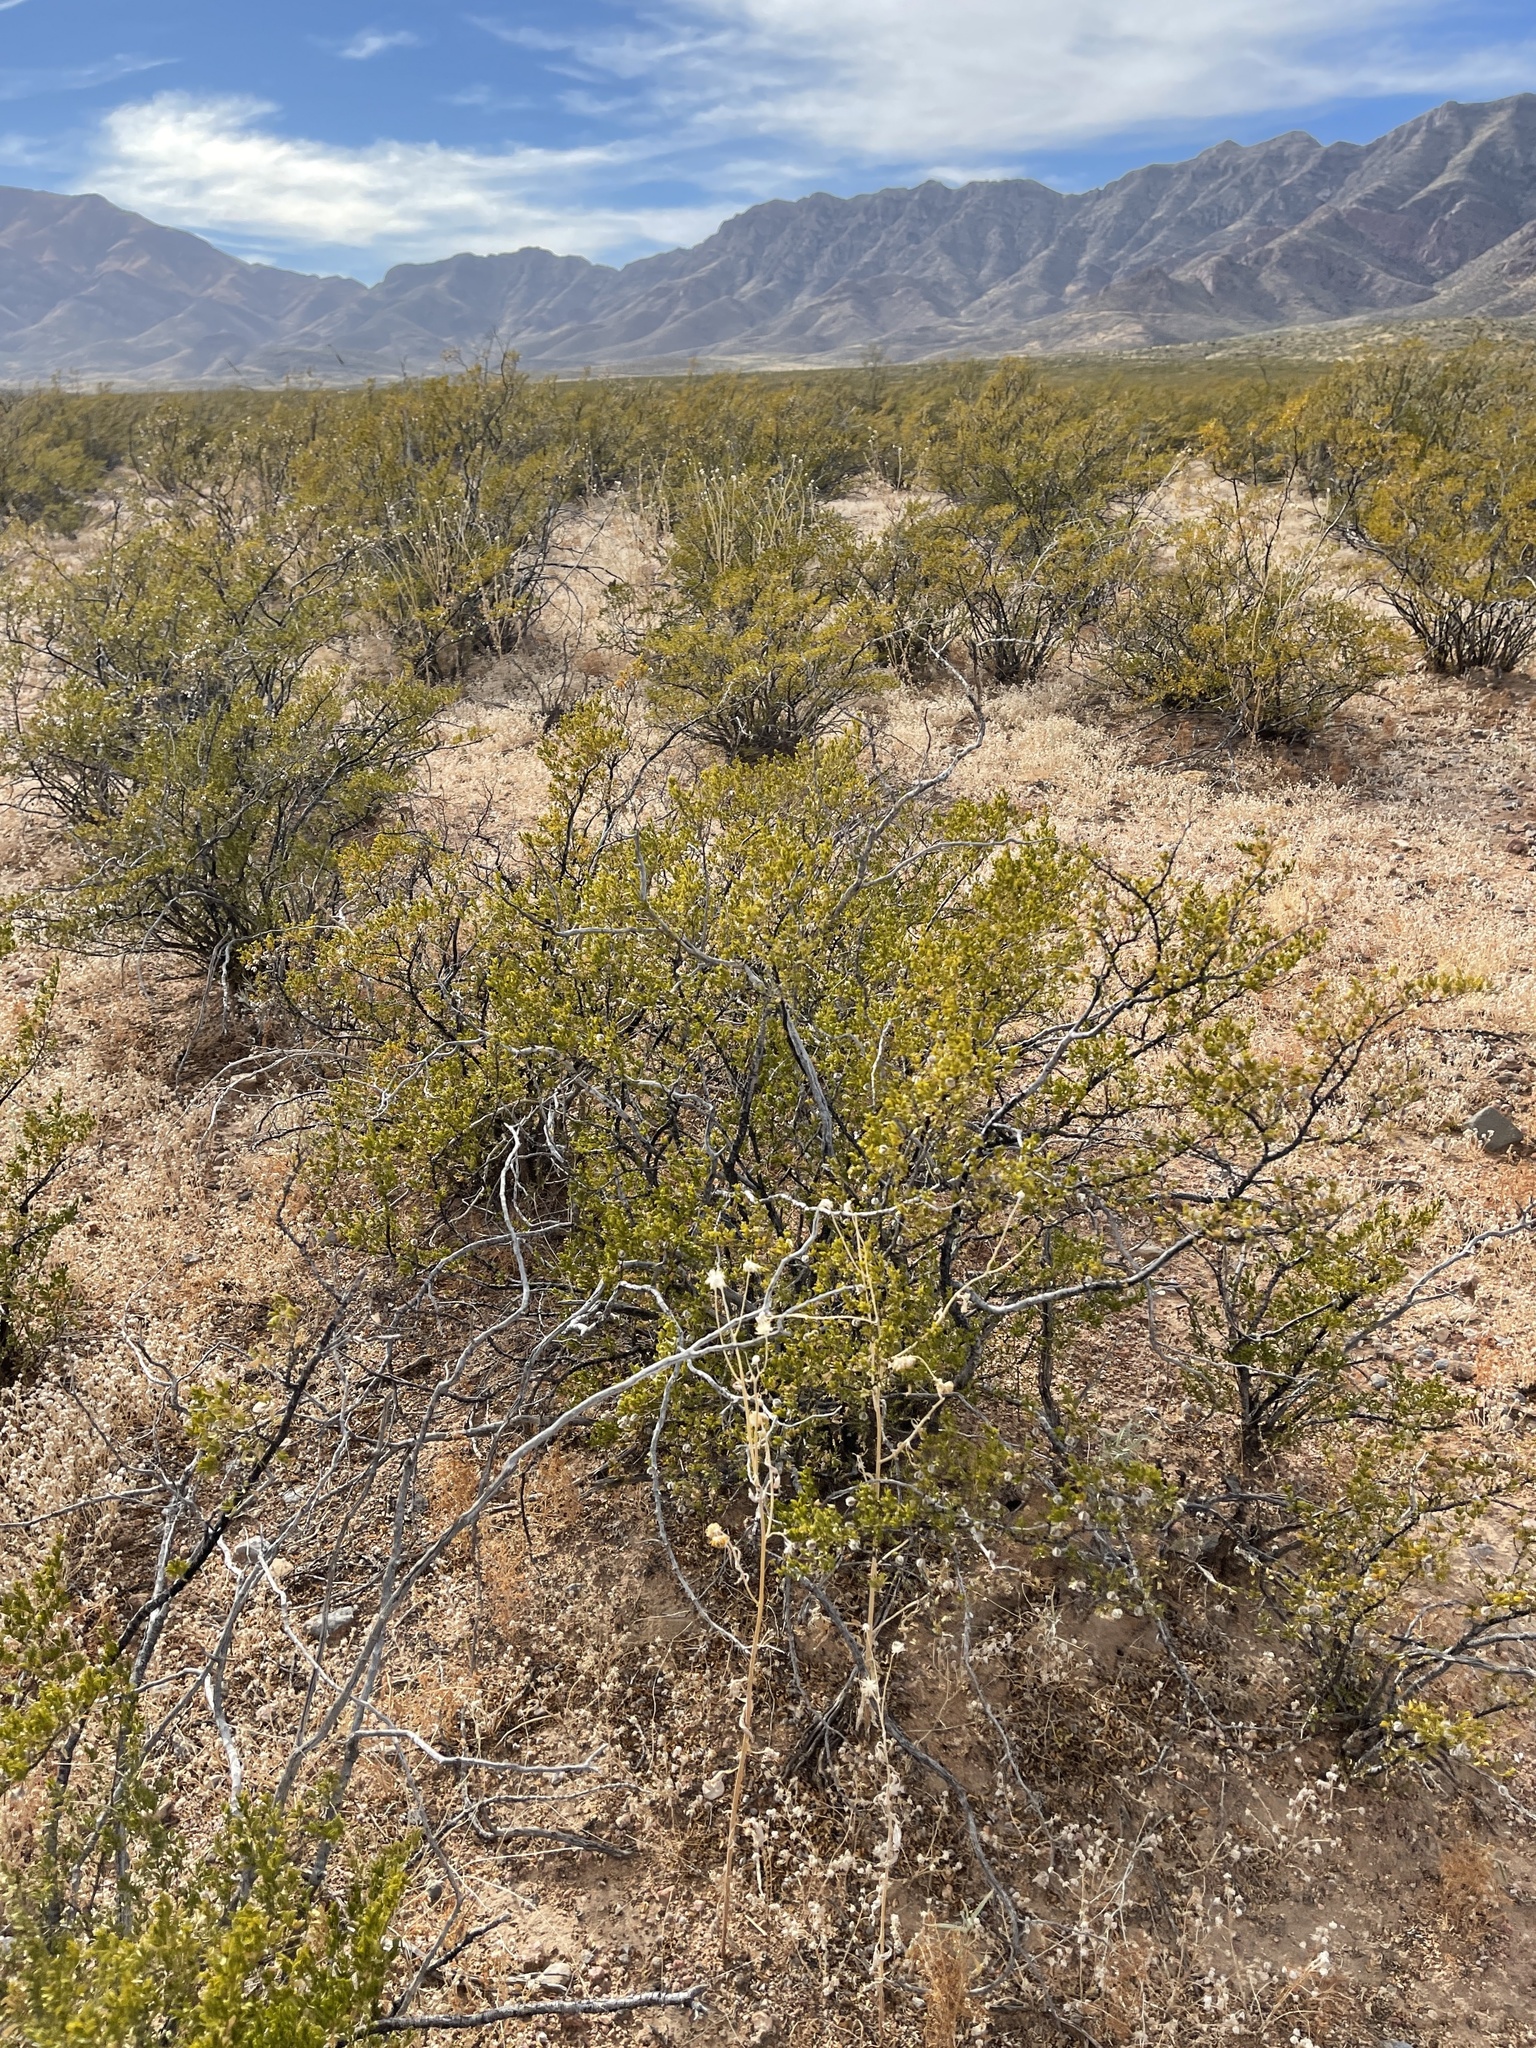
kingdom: Plantae
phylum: Tracheophyta
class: Magnoliopsida
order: Zygophyllales
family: Zygophyllaceae
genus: Larrea
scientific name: Larrea tridentata
